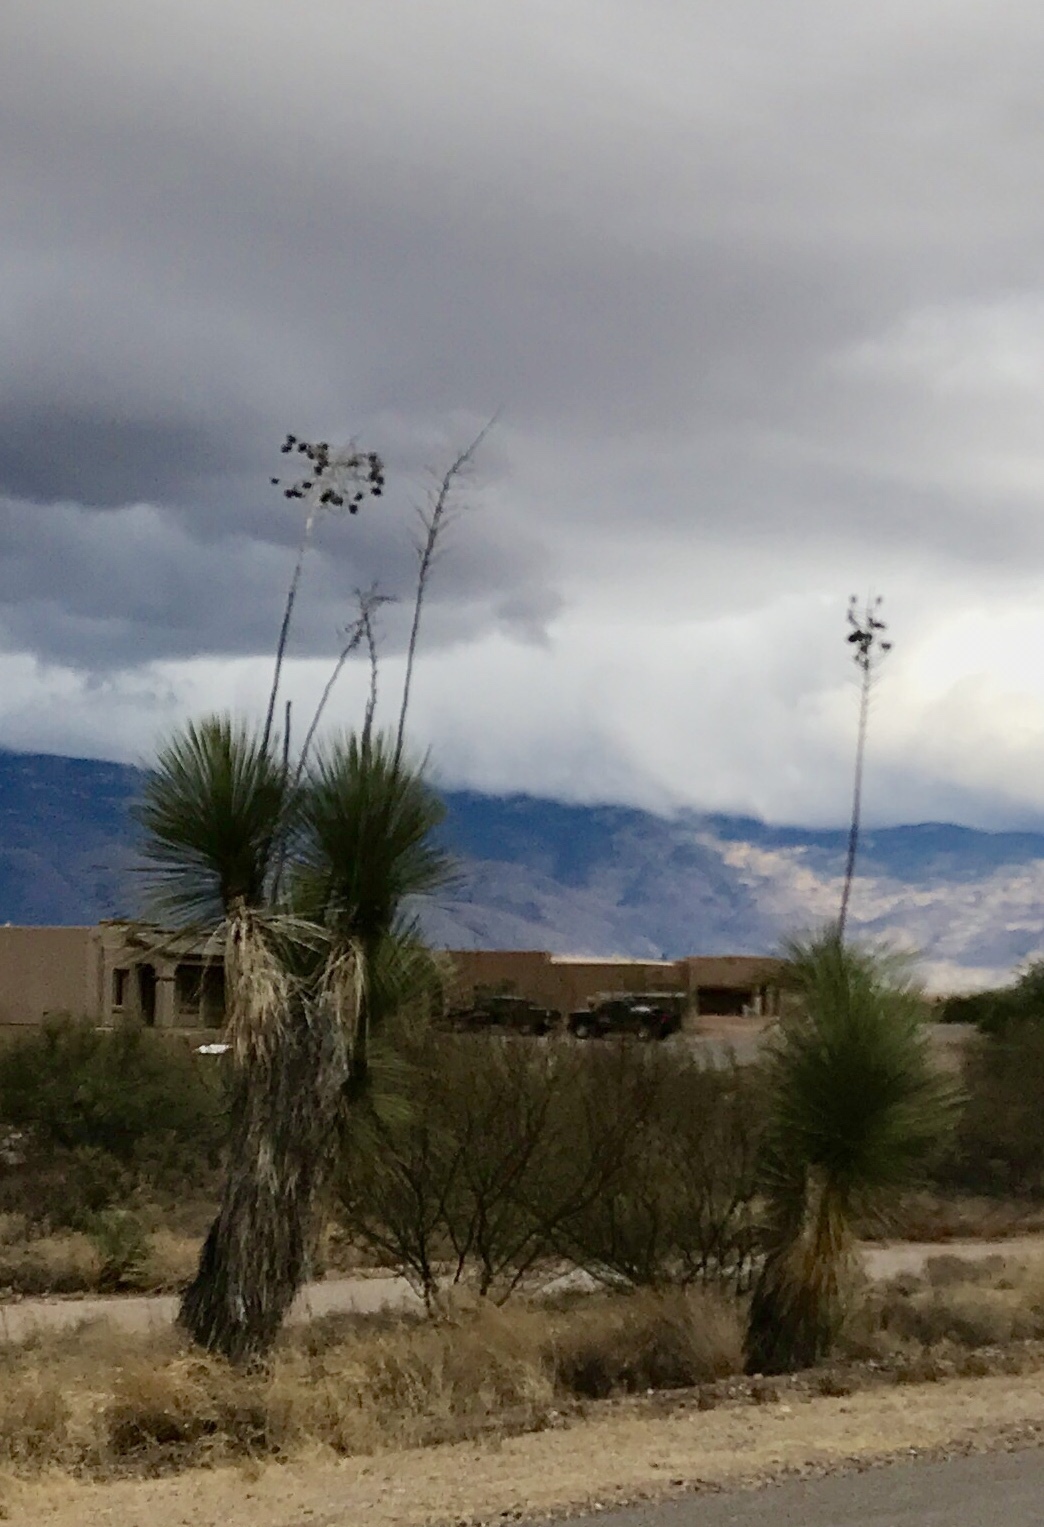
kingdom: Plantae
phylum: Tracheophyta
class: Liliopsida
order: Asparagales
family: Asparagaceae
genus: Yucca
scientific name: Yucca elata
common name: Palmella
